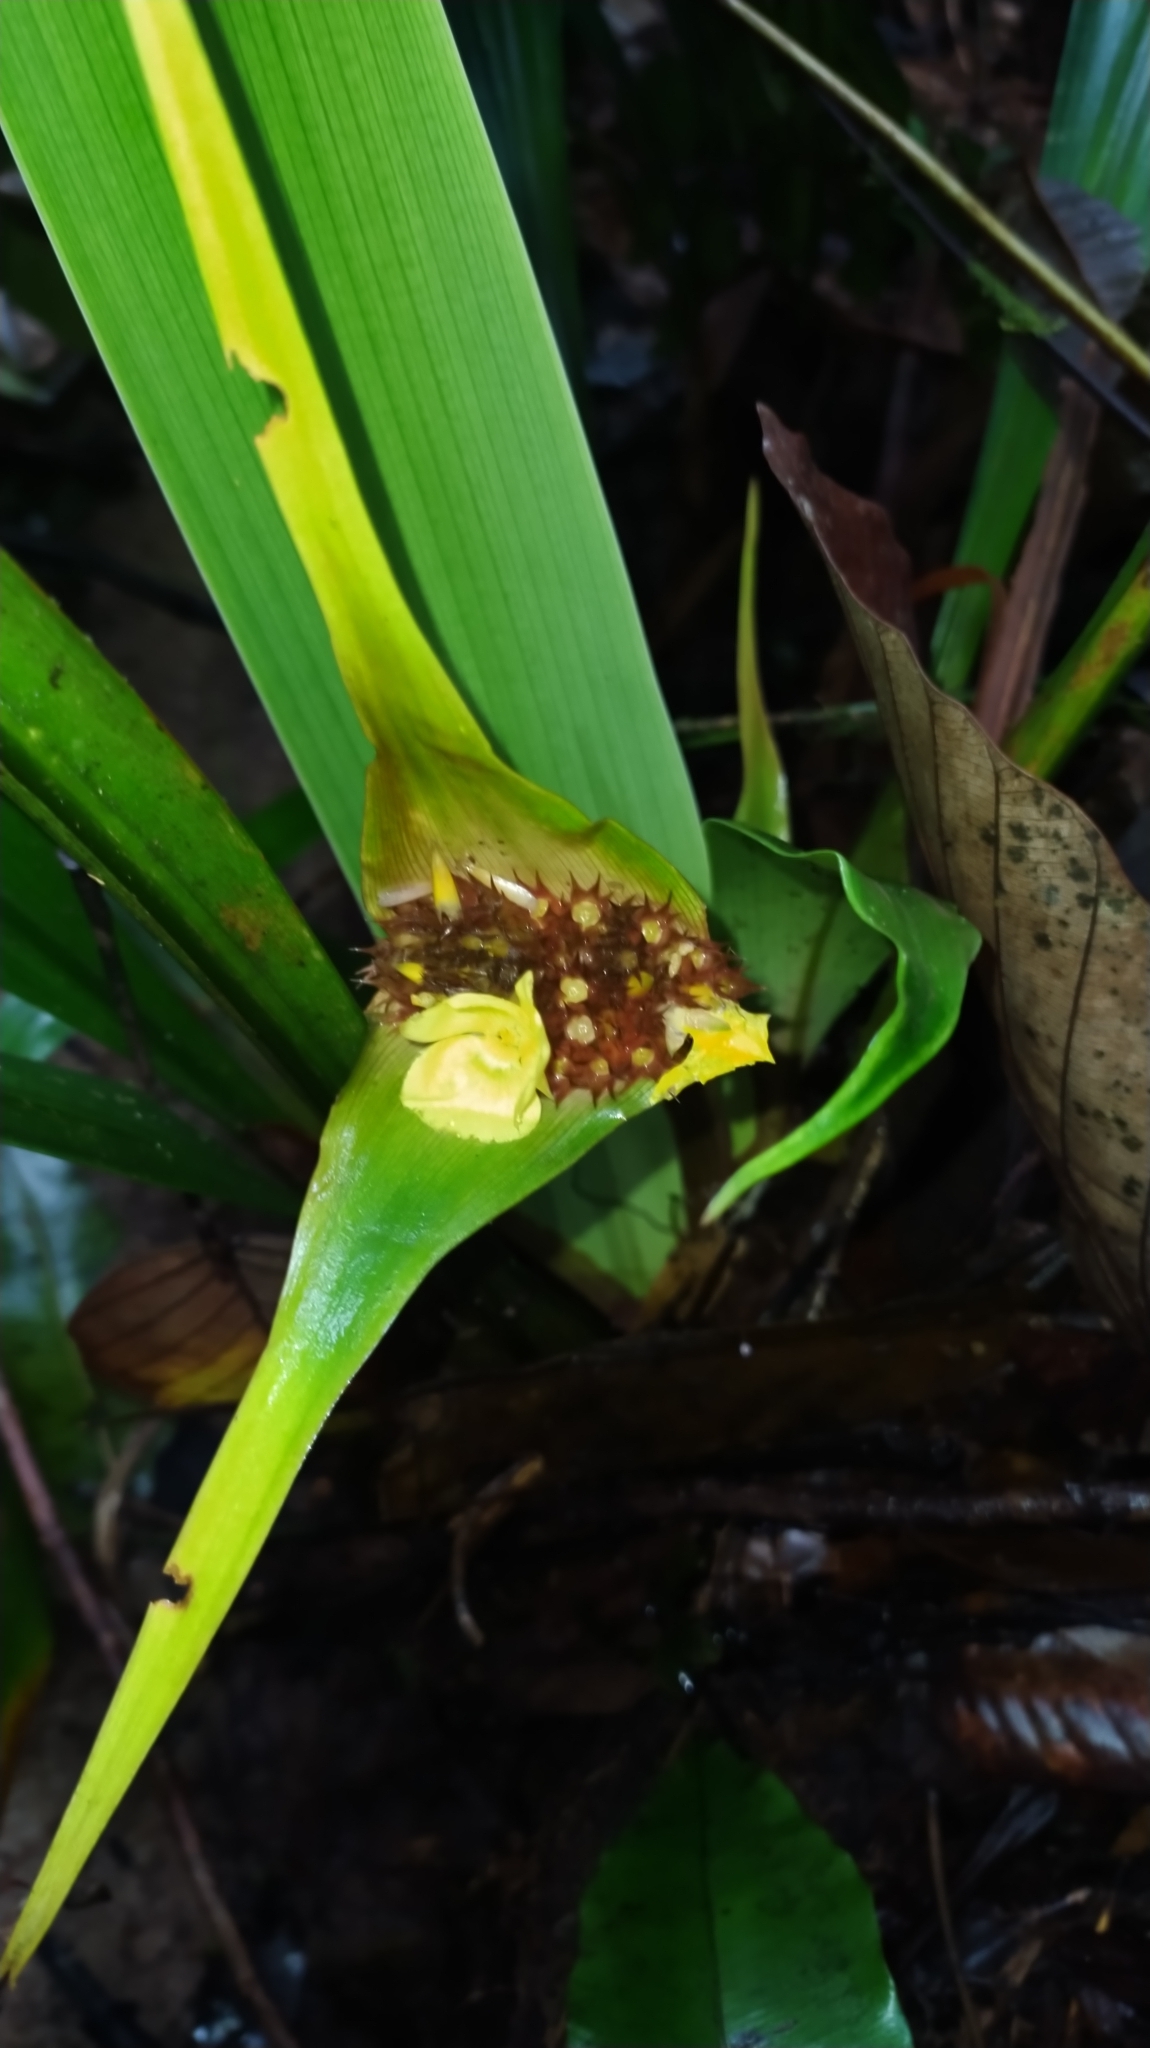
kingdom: Plantae
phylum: Tracheophyta
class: Liliopsida
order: Poales
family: Rapateaceae
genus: Rapatea
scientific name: Rapatea paludosa
